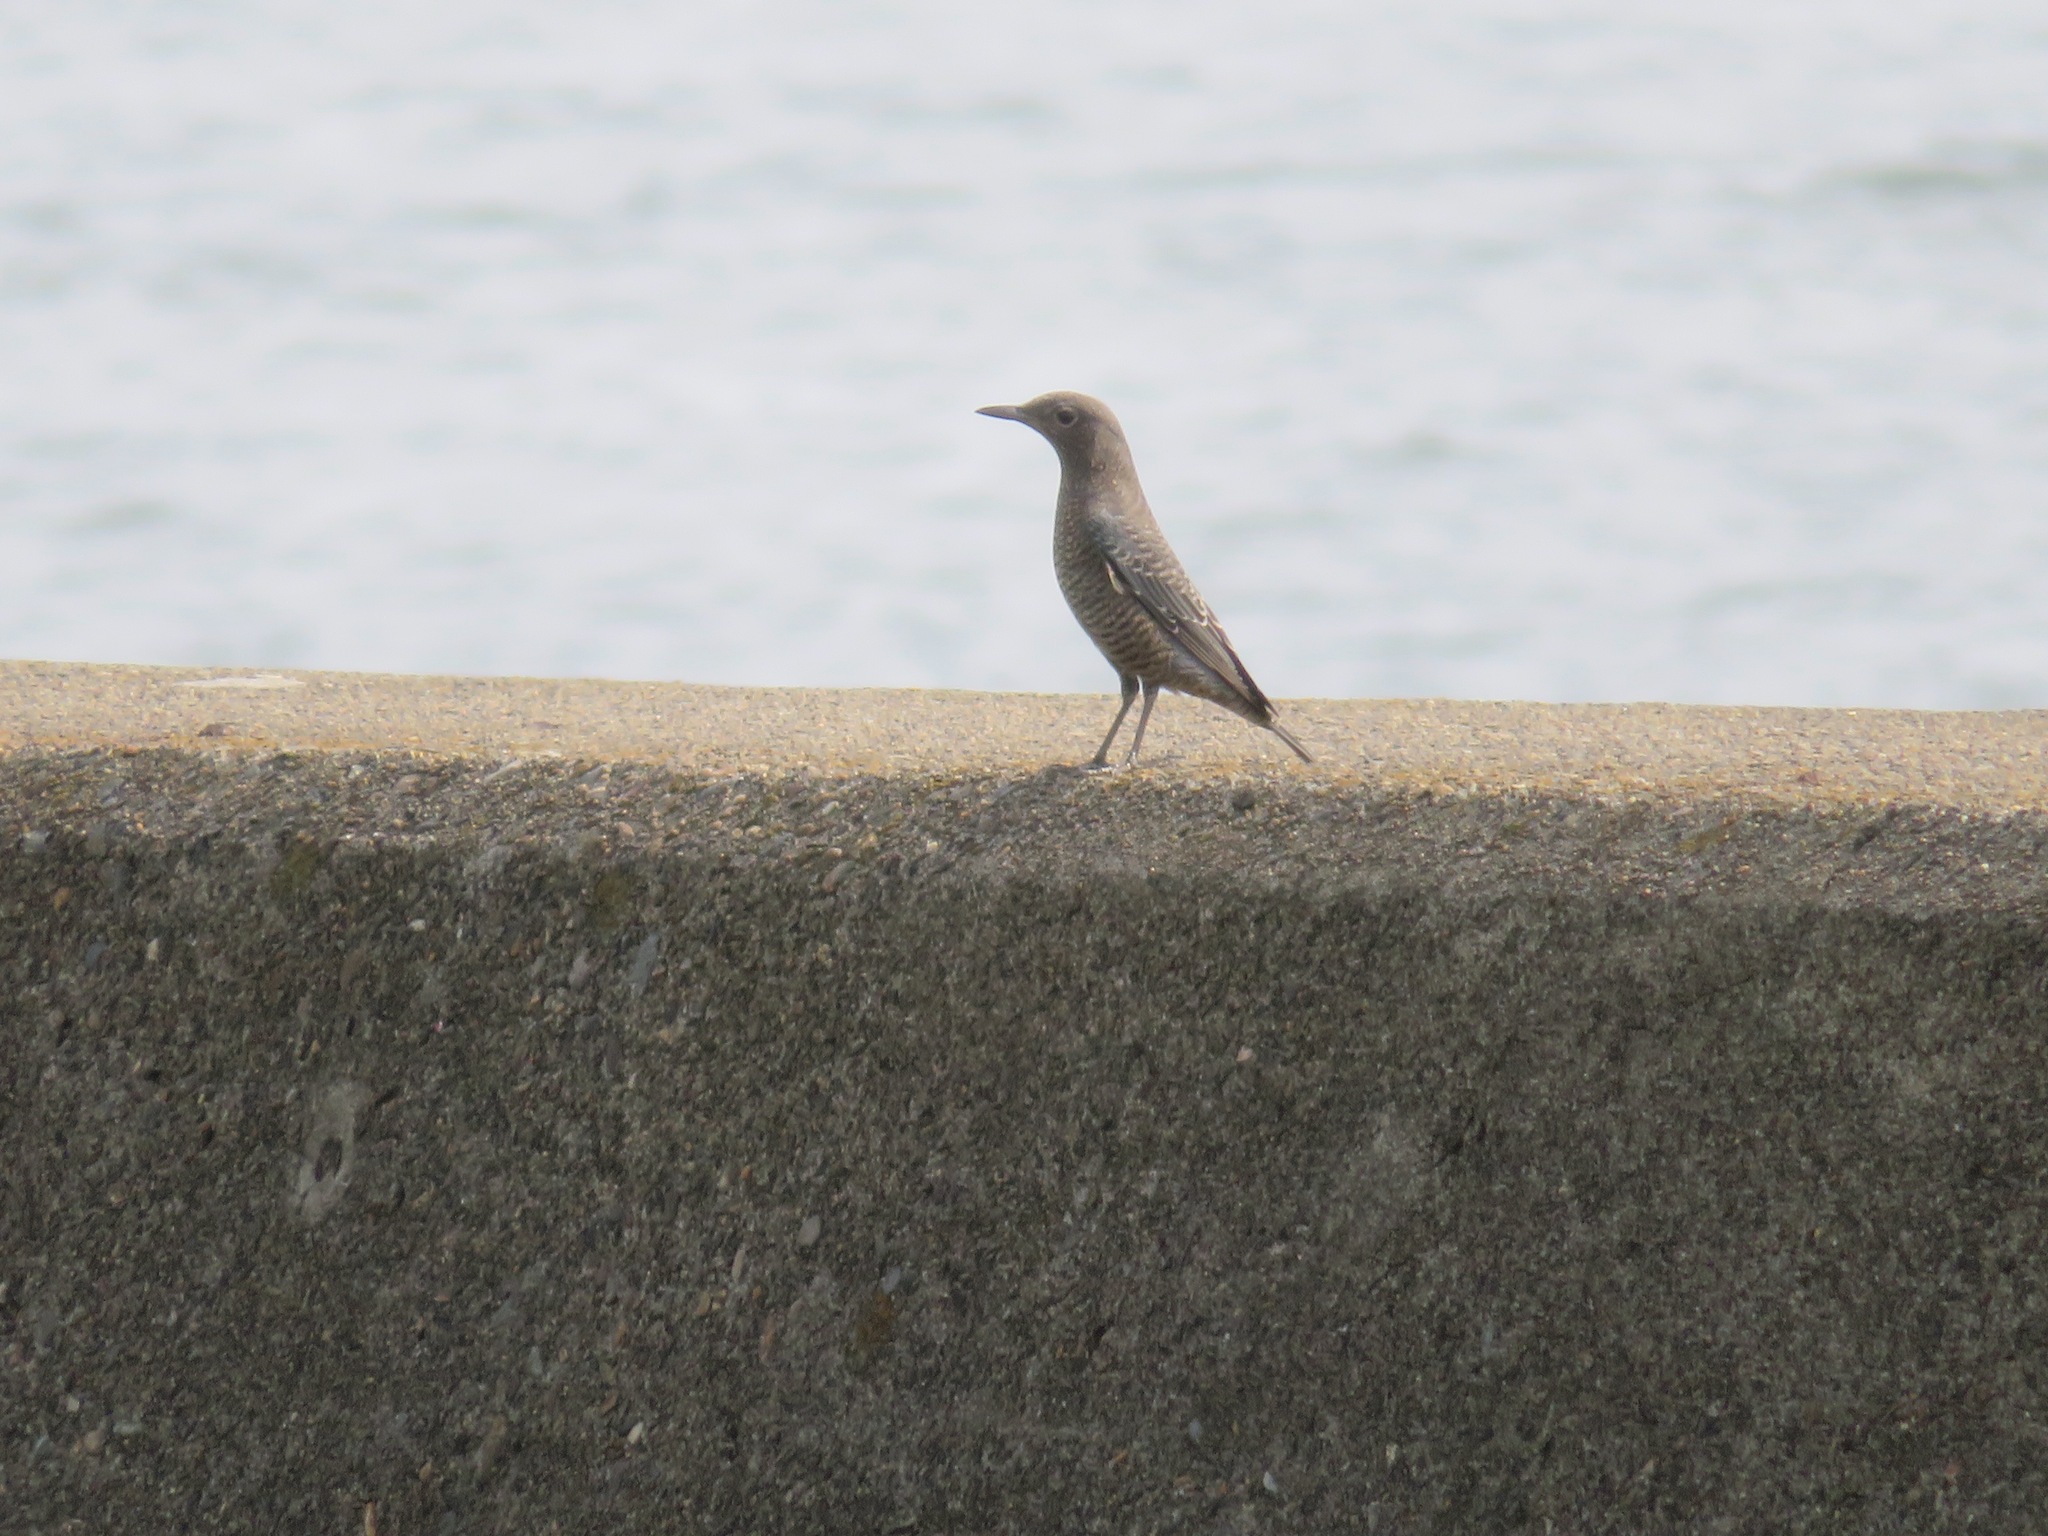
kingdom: Animalia
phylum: Chordata
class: Aves
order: Passeriformes
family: Muscicapidae
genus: Monticola
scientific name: Monticola solitarius
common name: Blue rock thrush
